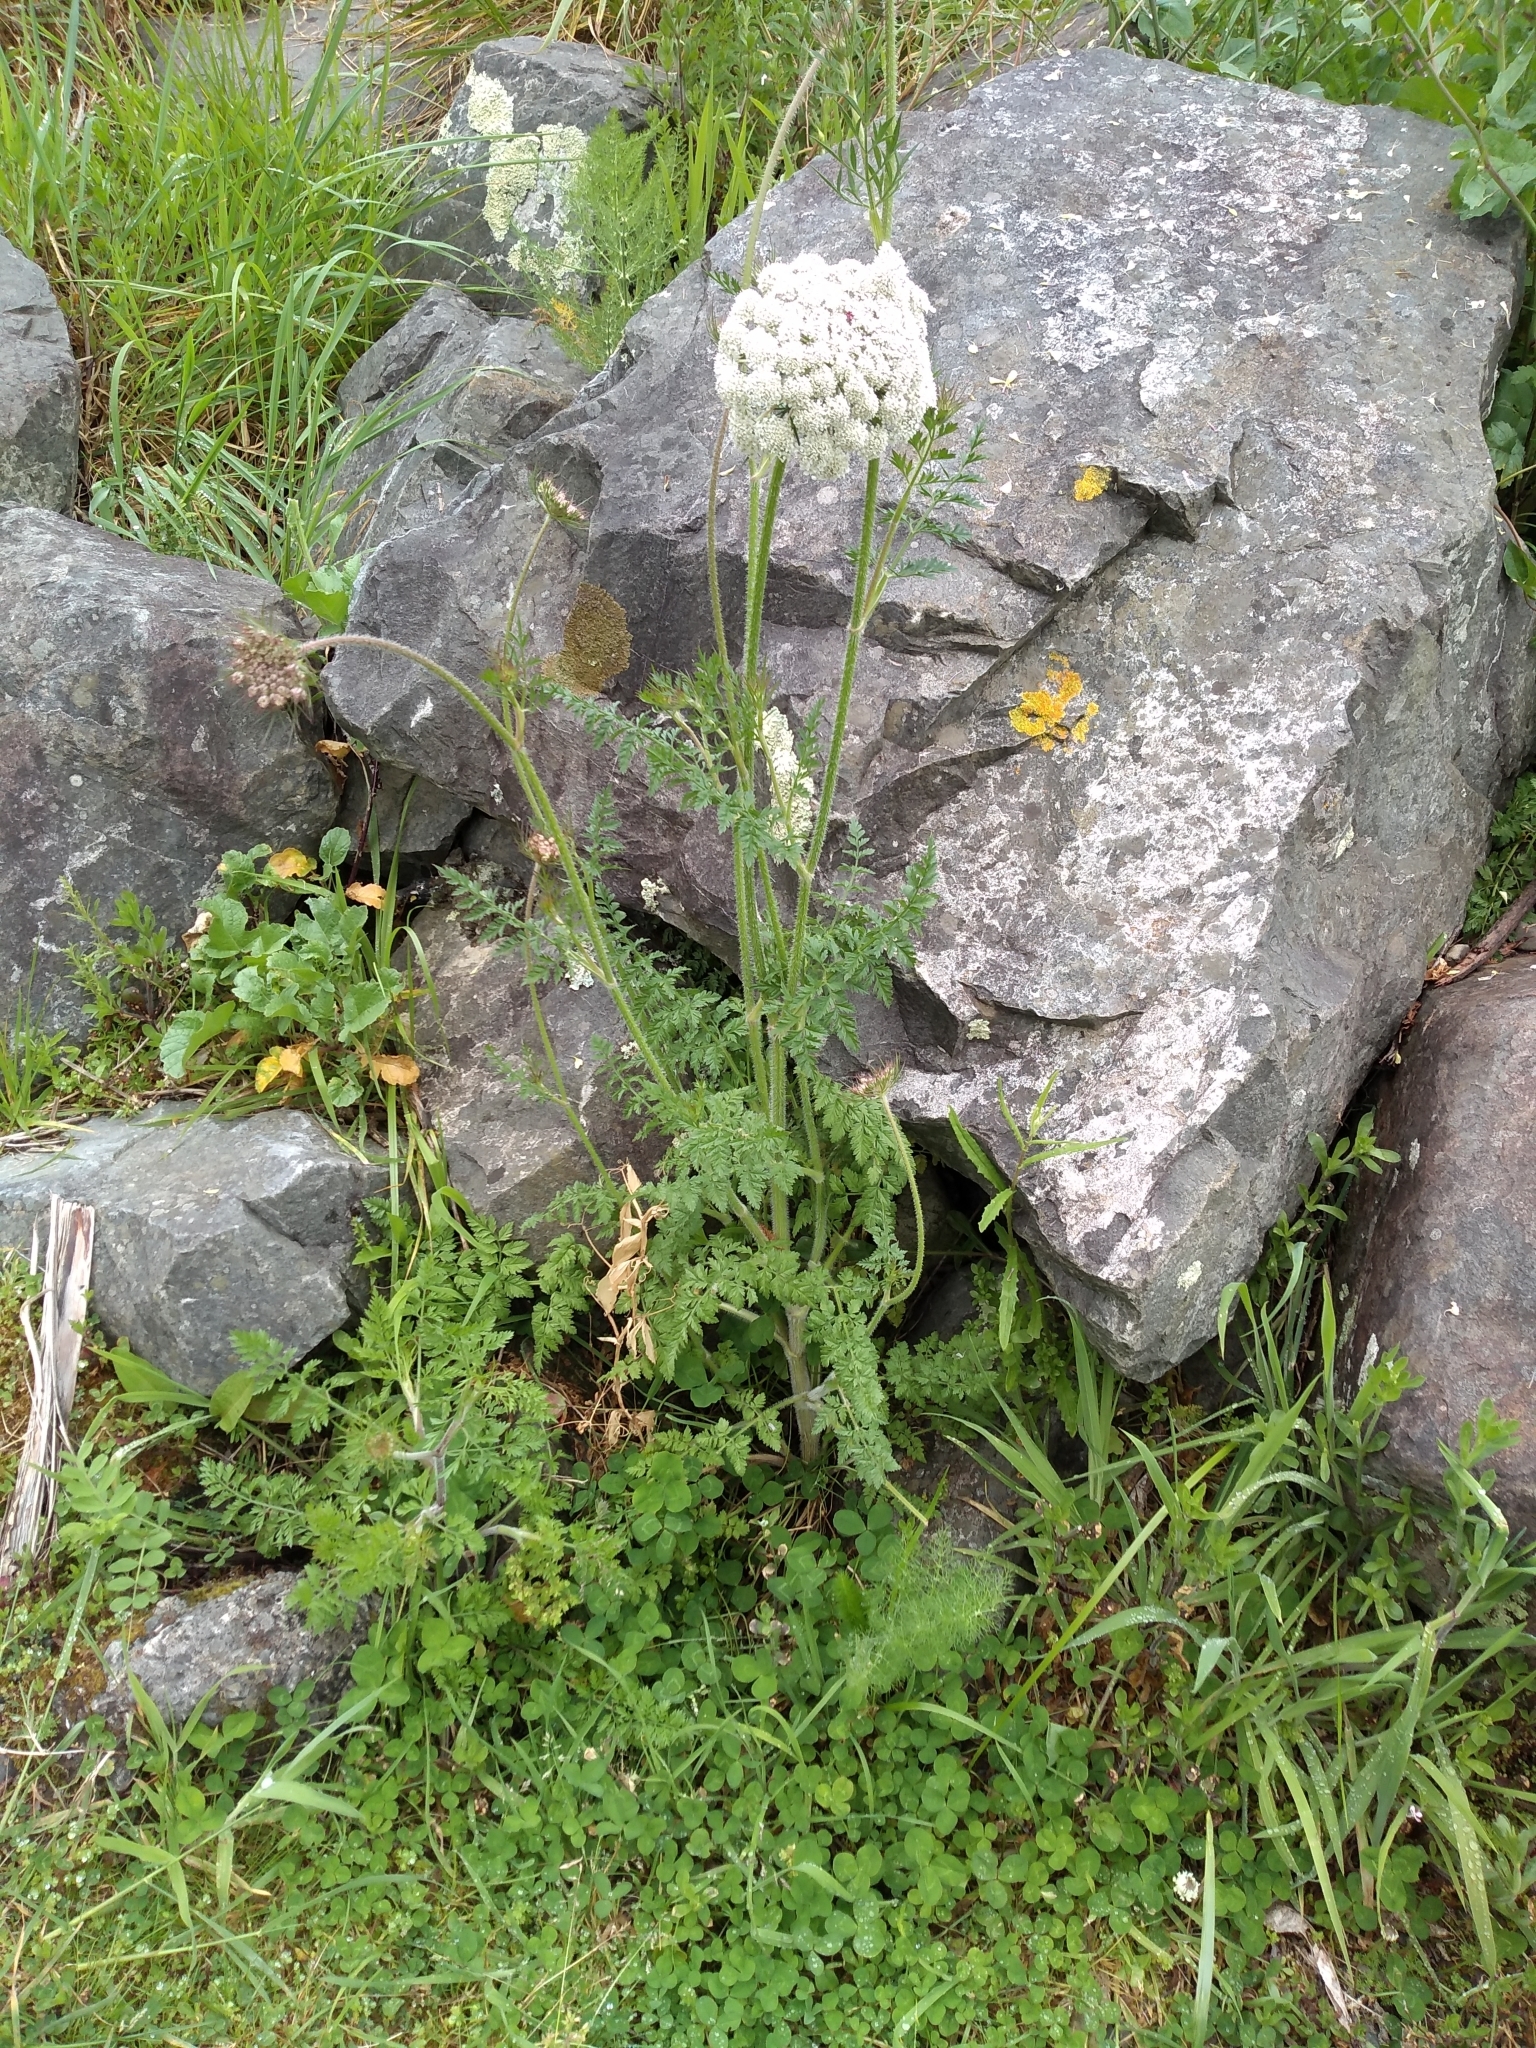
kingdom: Plantae
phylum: Tracheophyta
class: Magnoliopsida
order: Apiales
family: Apiaceae
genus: Daucus
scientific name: Daucus carota
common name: Wild carrot
